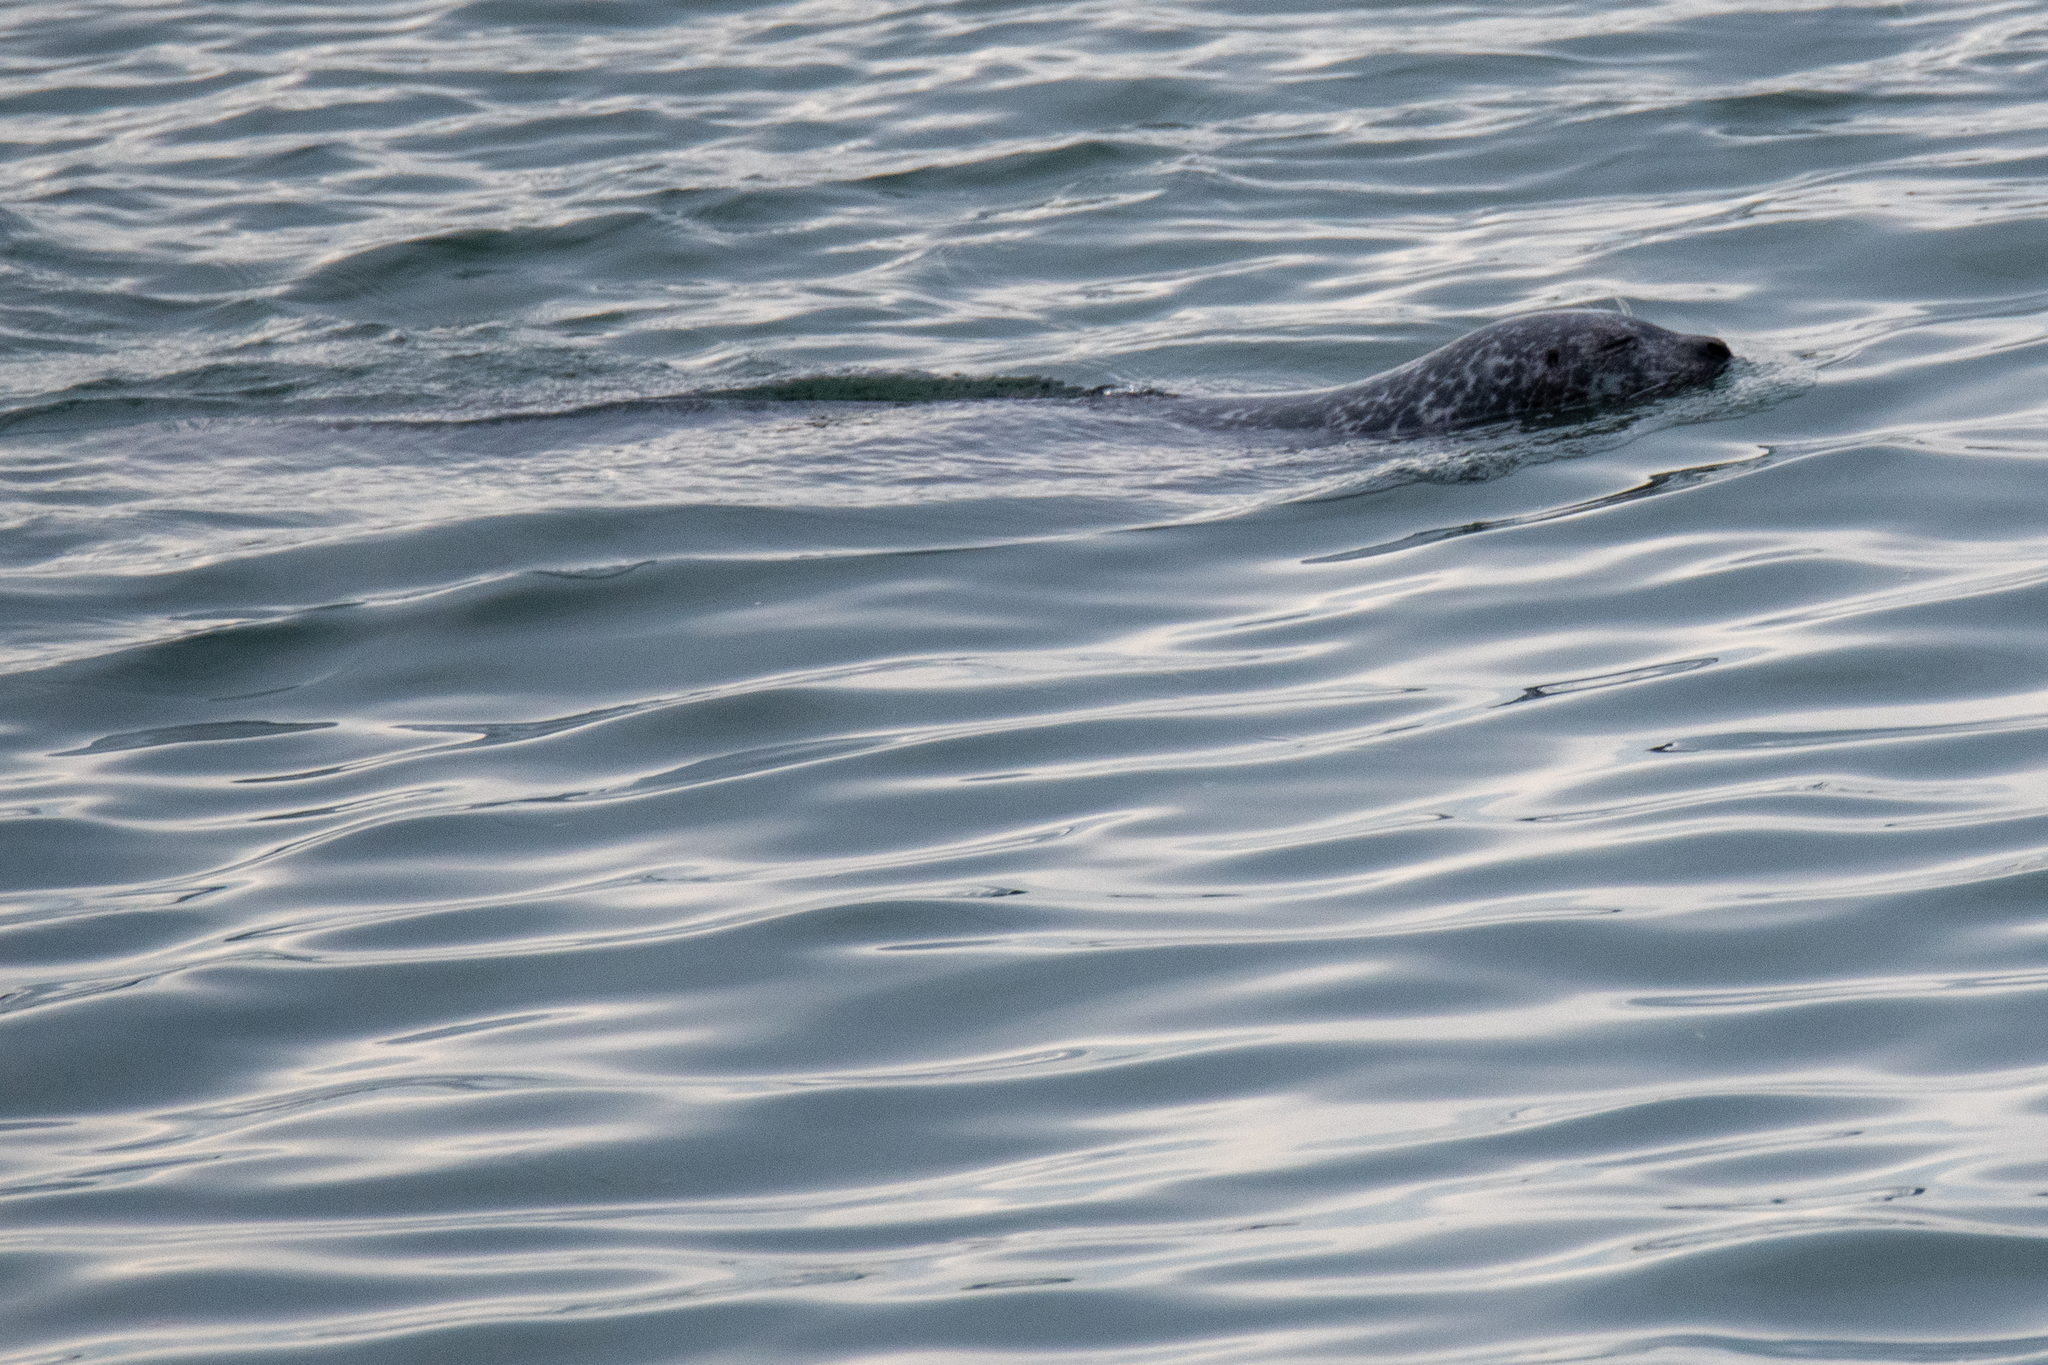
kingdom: Animalia
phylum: Chordata
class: Mammalia
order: Carnivora
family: Phocidae
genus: Phoca
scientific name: Phoca vitulina
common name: Harbor seal
